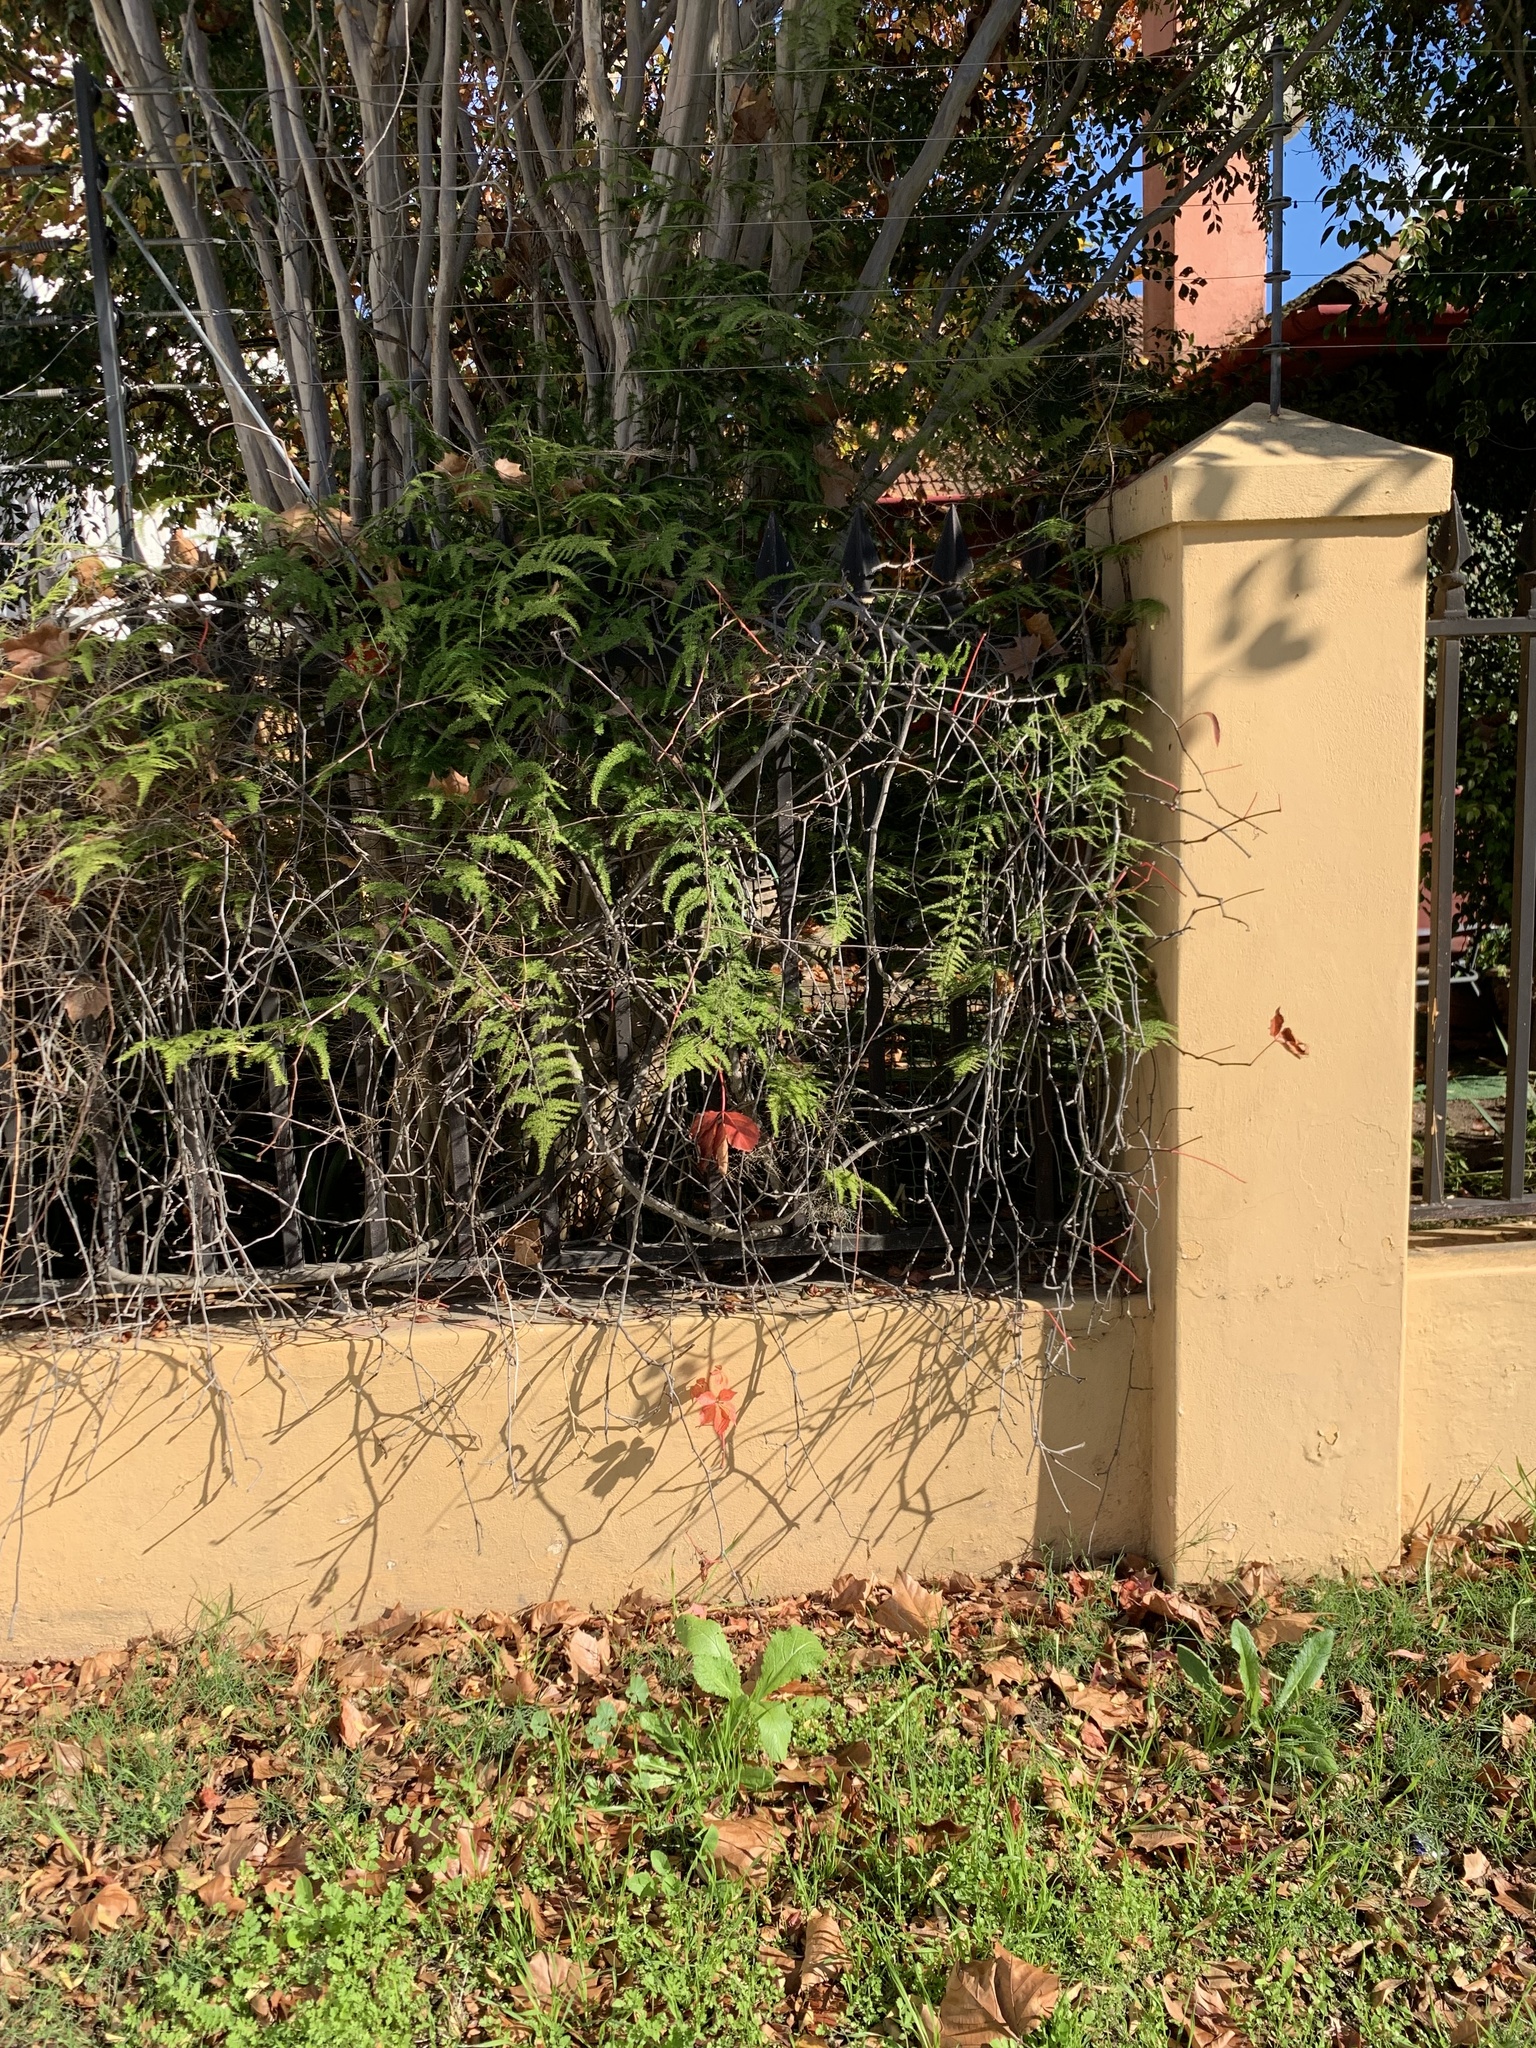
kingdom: Plantae
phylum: Tracheophyta
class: Liliopsida
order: Asparagales
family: Asparagaceae
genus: Asparagus
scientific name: Asparagus setaceus
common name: Common asparagus fern
